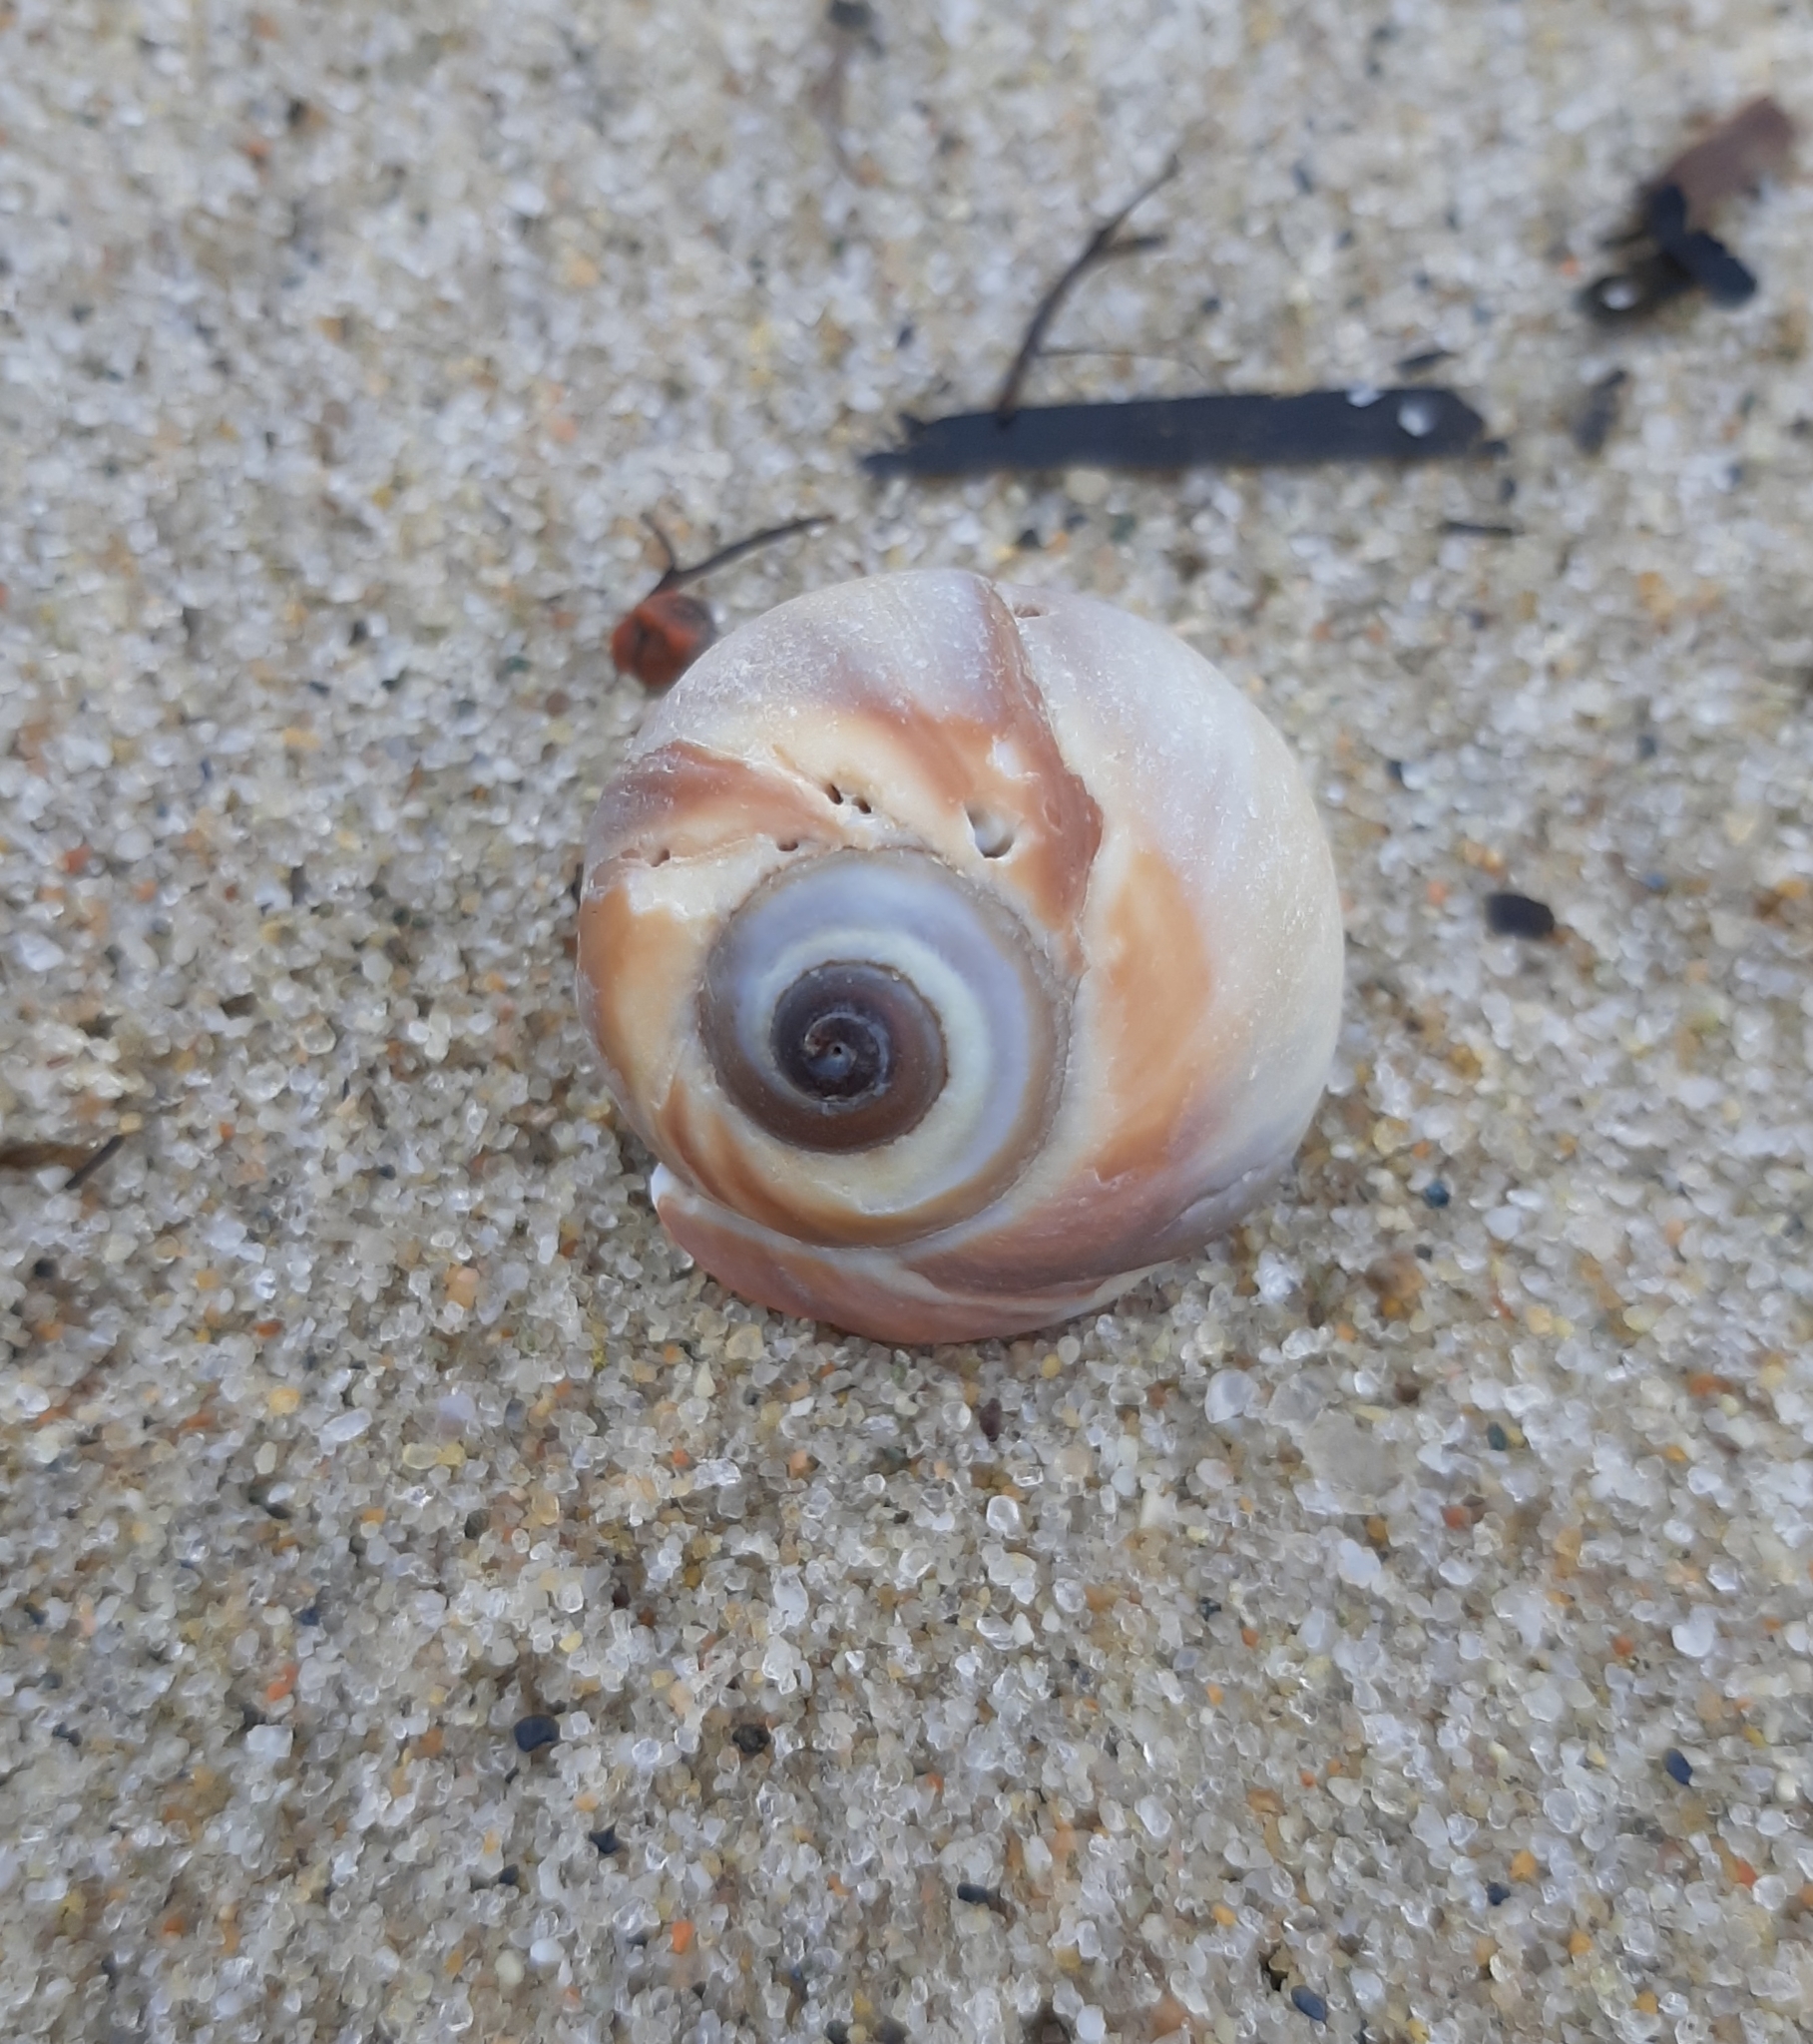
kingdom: Animalia
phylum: Mollusca
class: Gastropoda
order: Littorinimorpha
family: Naticidae
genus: Euspira
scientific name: Euspira heros
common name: Common northern moonsnail
